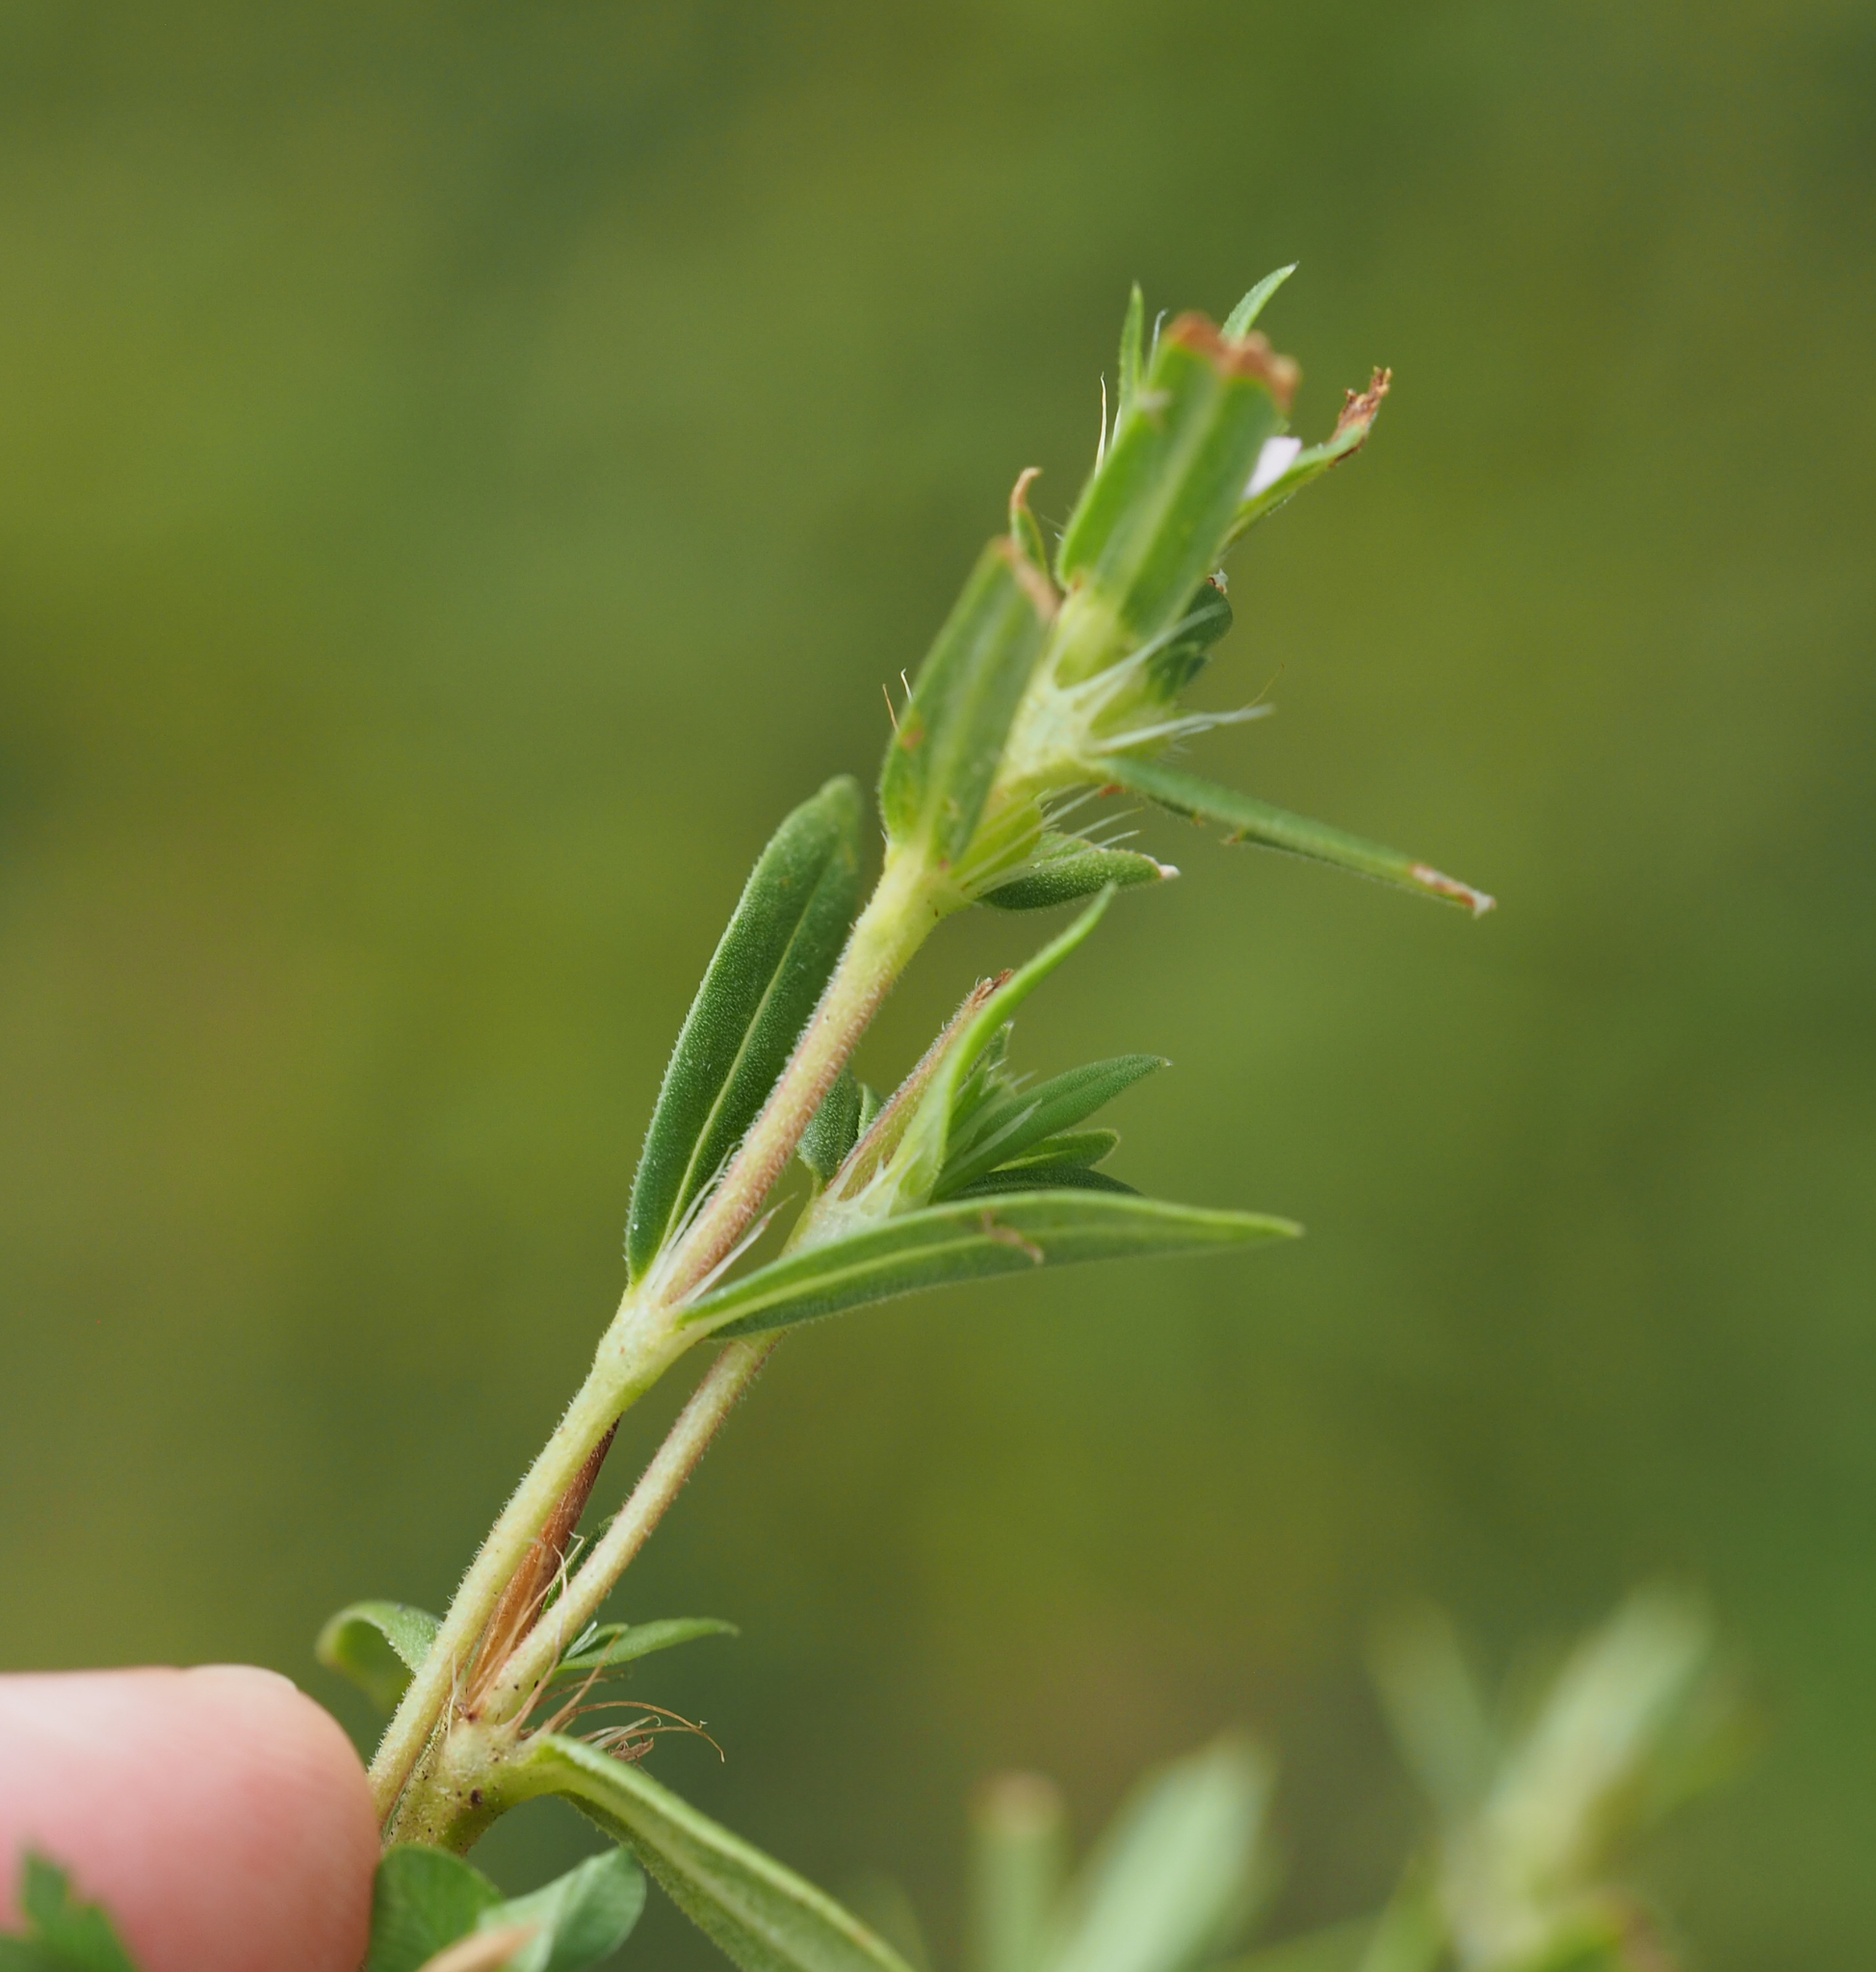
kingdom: Plantae
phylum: Tracheophyta
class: Magnoliopsida
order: Gentianales
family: Rubiaceae
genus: Hexasepalum
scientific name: Hexasepalum teres
